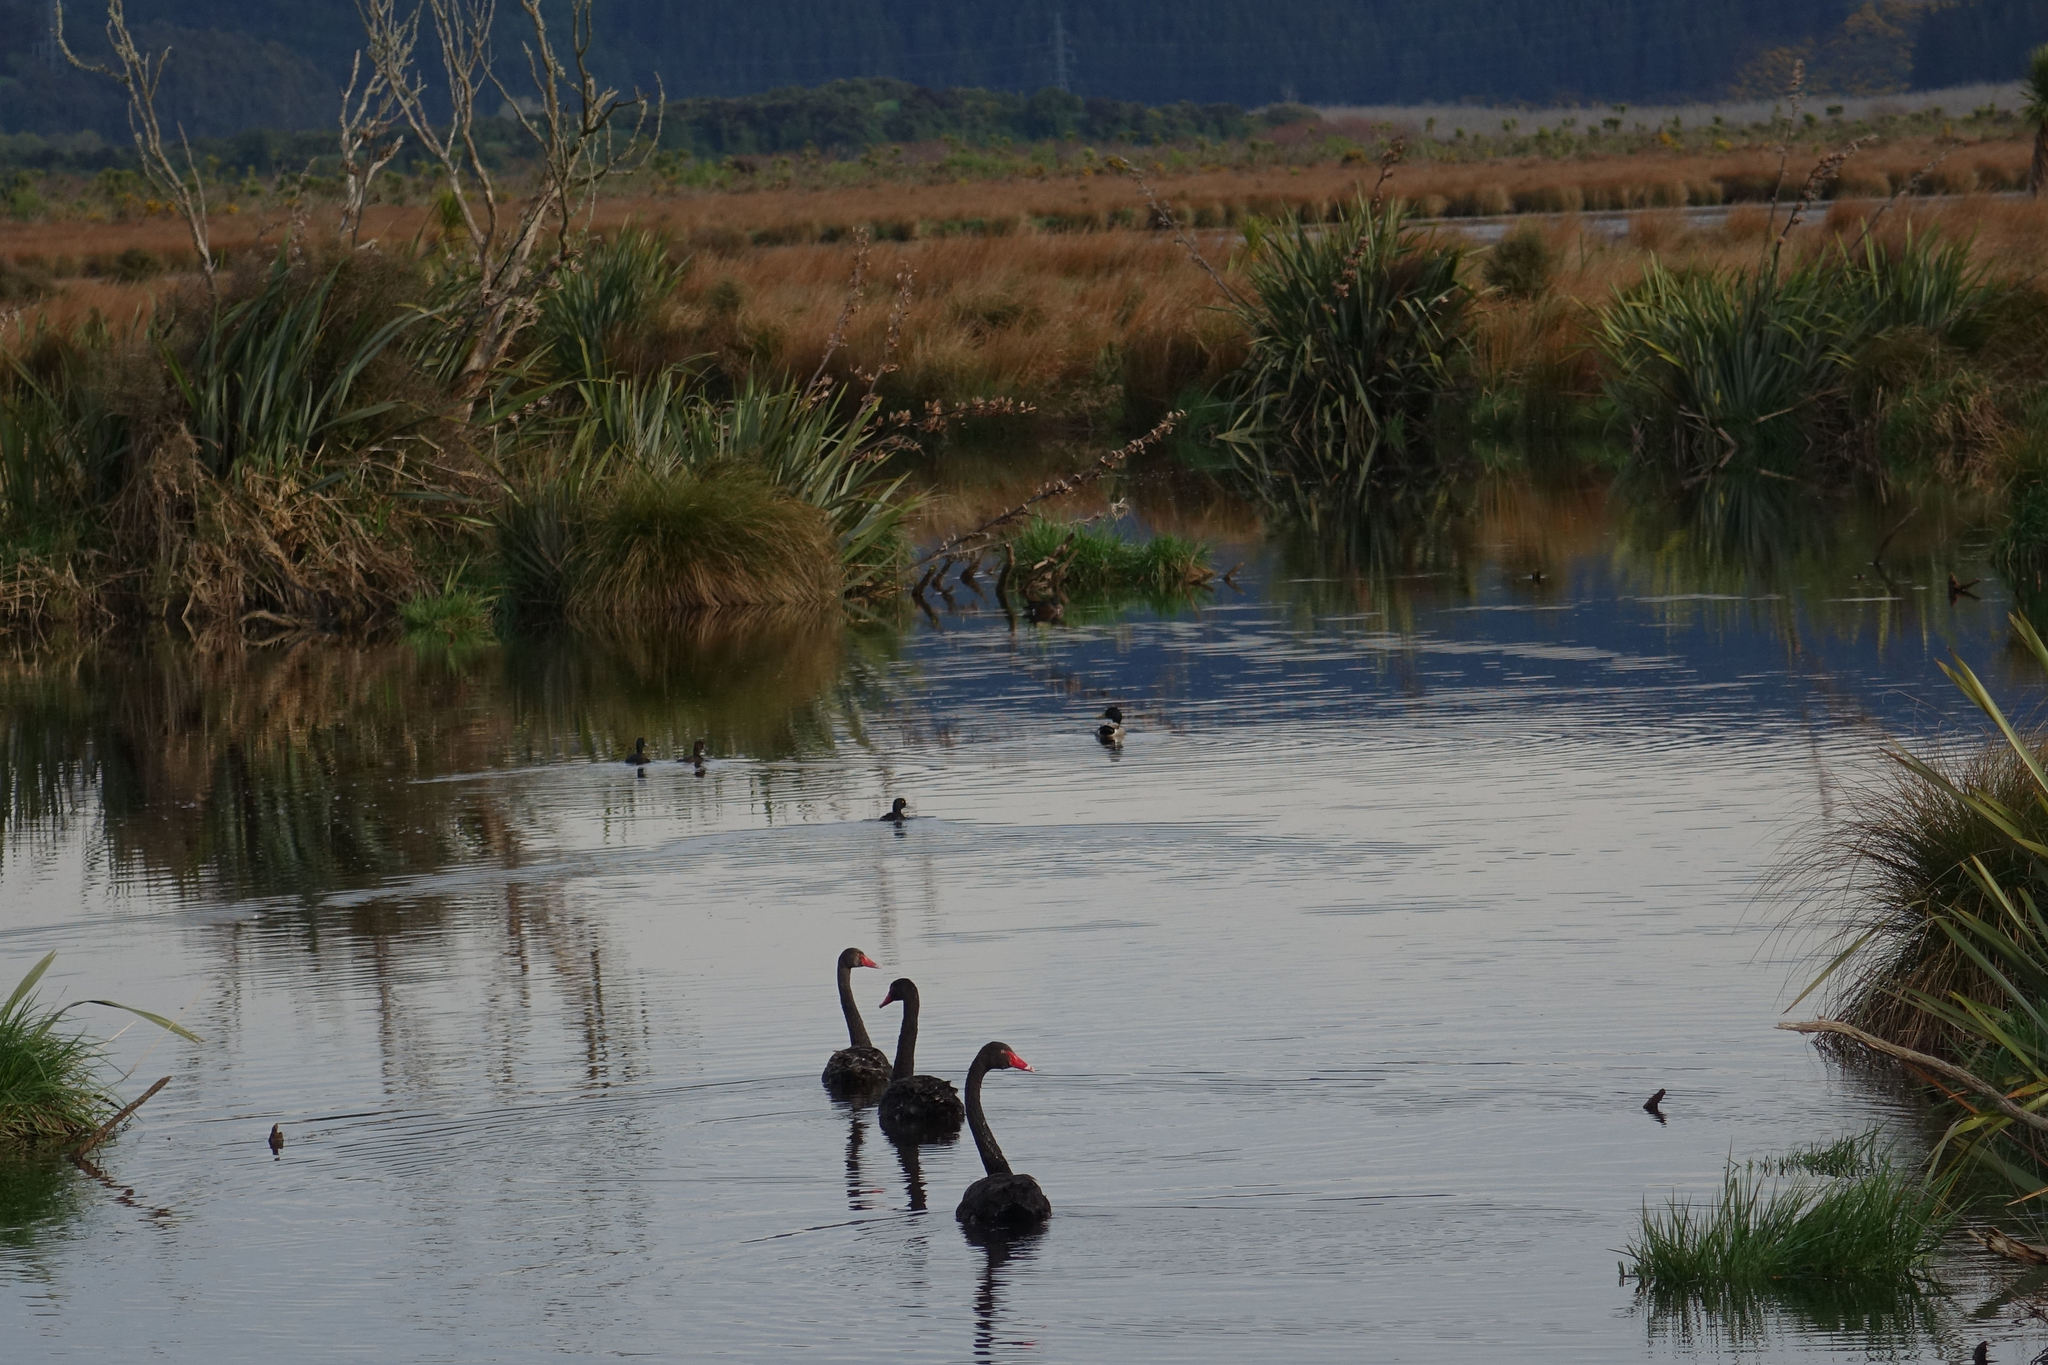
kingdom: Animalia
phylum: Chordata
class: Aves
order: Anseriformes
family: Anatidae
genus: Cygnus
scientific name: Cygnus atratus
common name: Black swan
